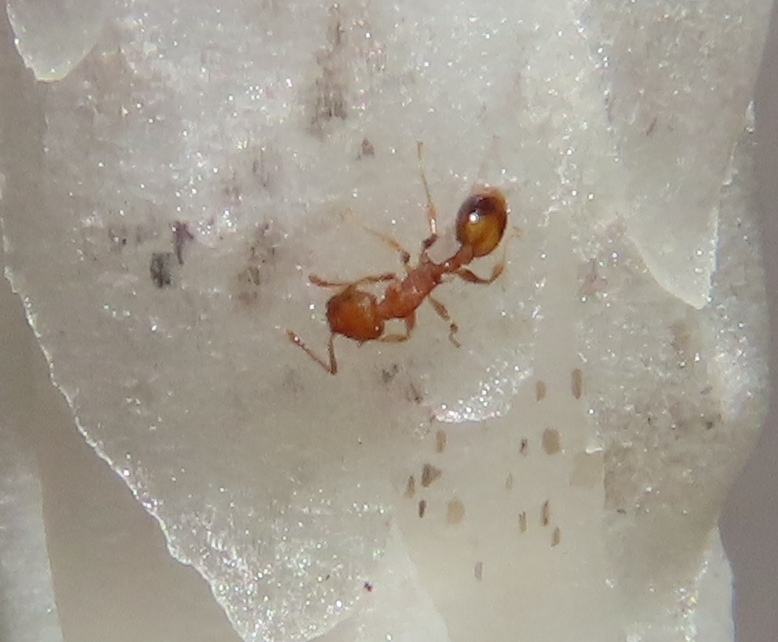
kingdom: Animalia
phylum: Arthropoda
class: Insecta
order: Hymenoptera
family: Formicidae
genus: Temnothorax
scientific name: Temnothorax curvispinosus
